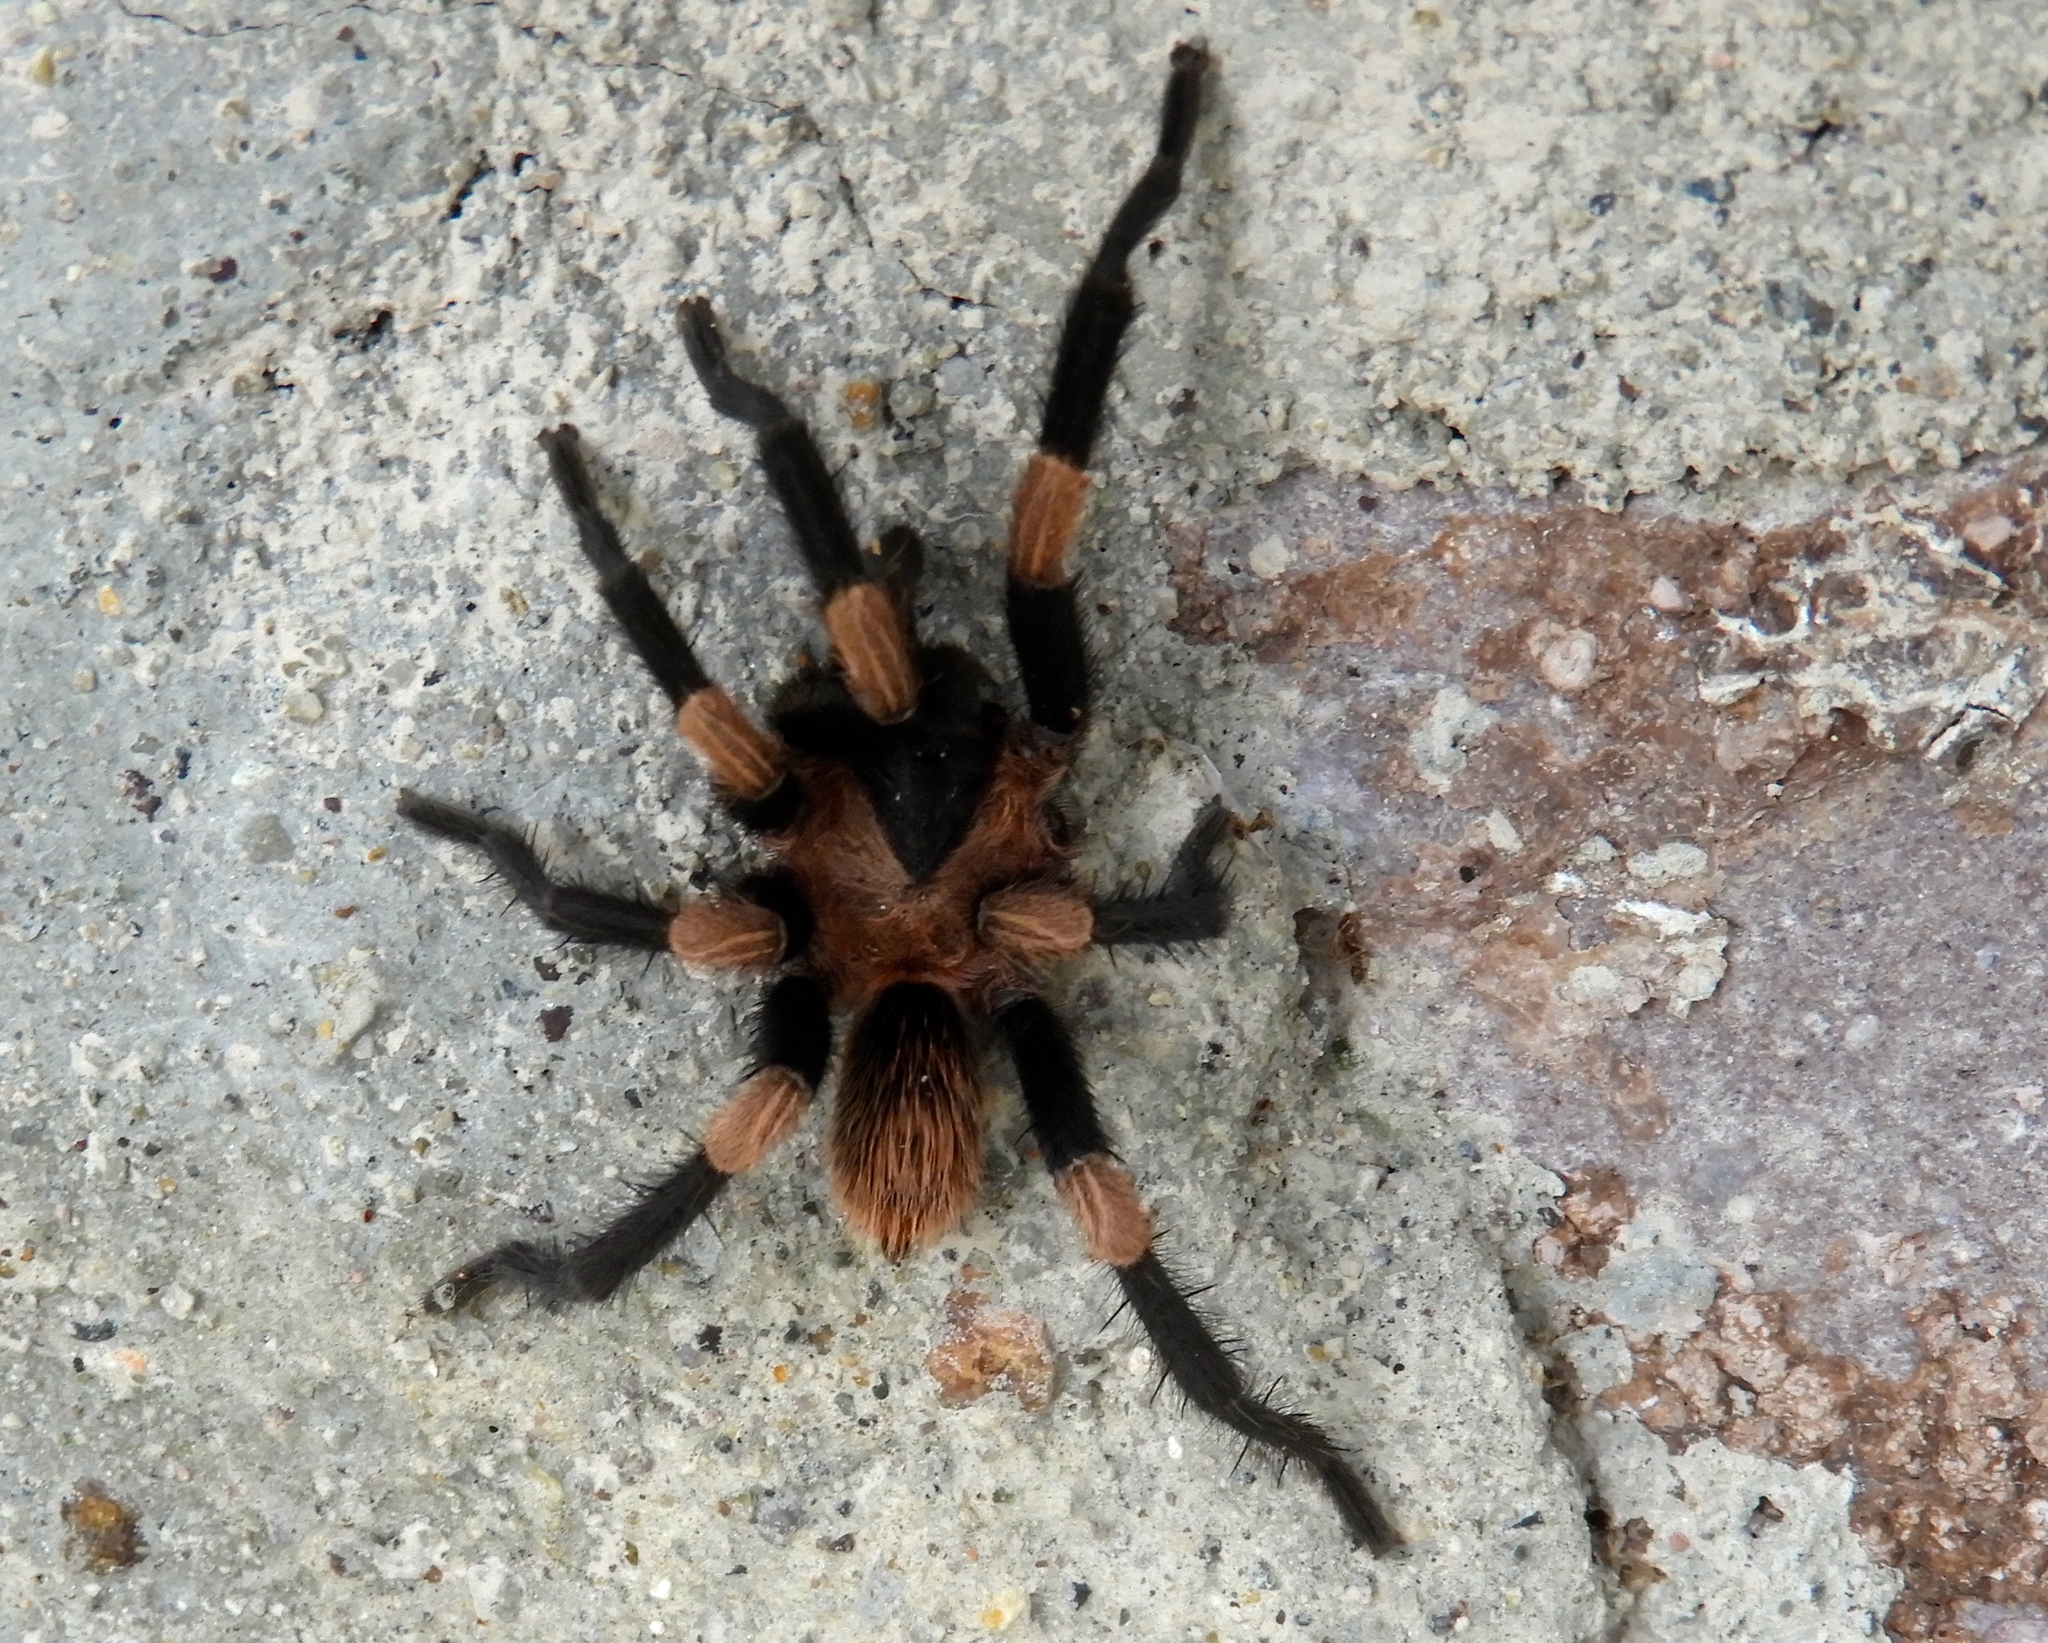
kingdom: Animalia
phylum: Arthropoda
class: Arachnida
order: Araneae
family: Theraphosidae
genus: Magnacarina
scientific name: Magnacarina
